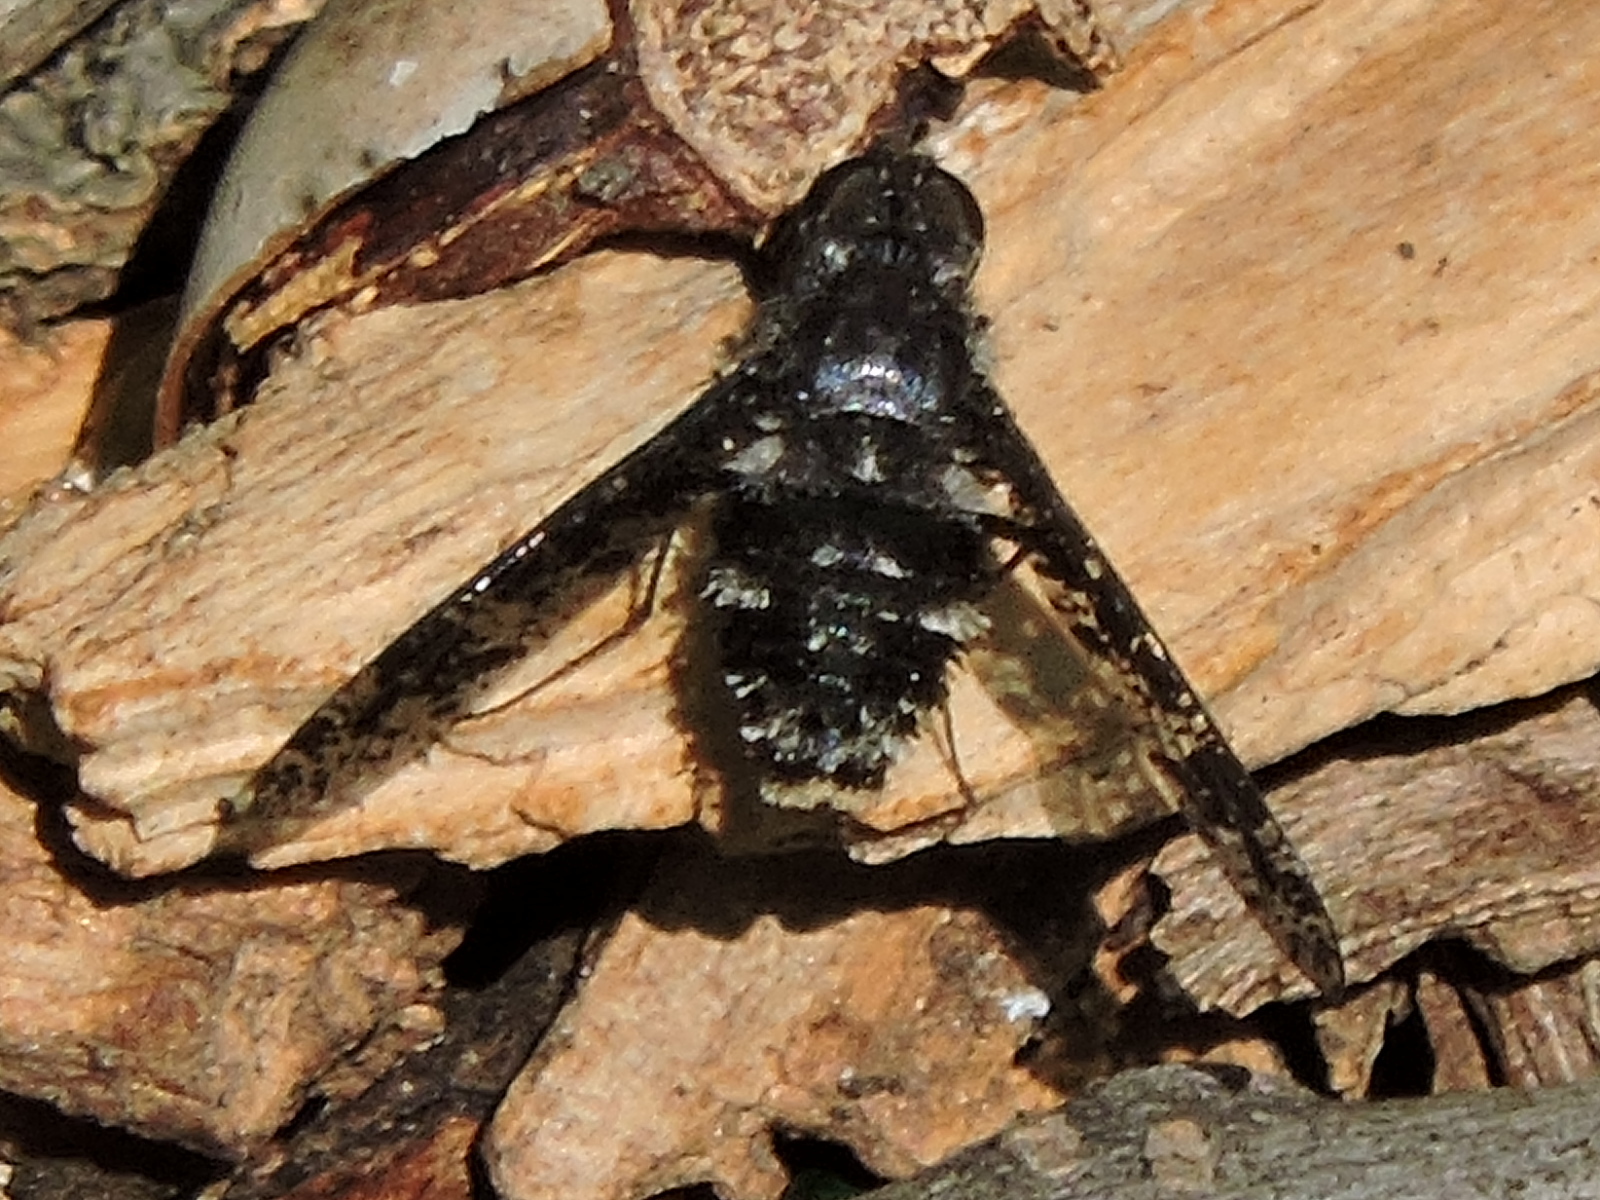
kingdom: Animalia
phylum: Arthropoda
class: Insecta
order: Diptera
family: Bombyliidae
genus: Anthrax
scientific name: Anthrax
